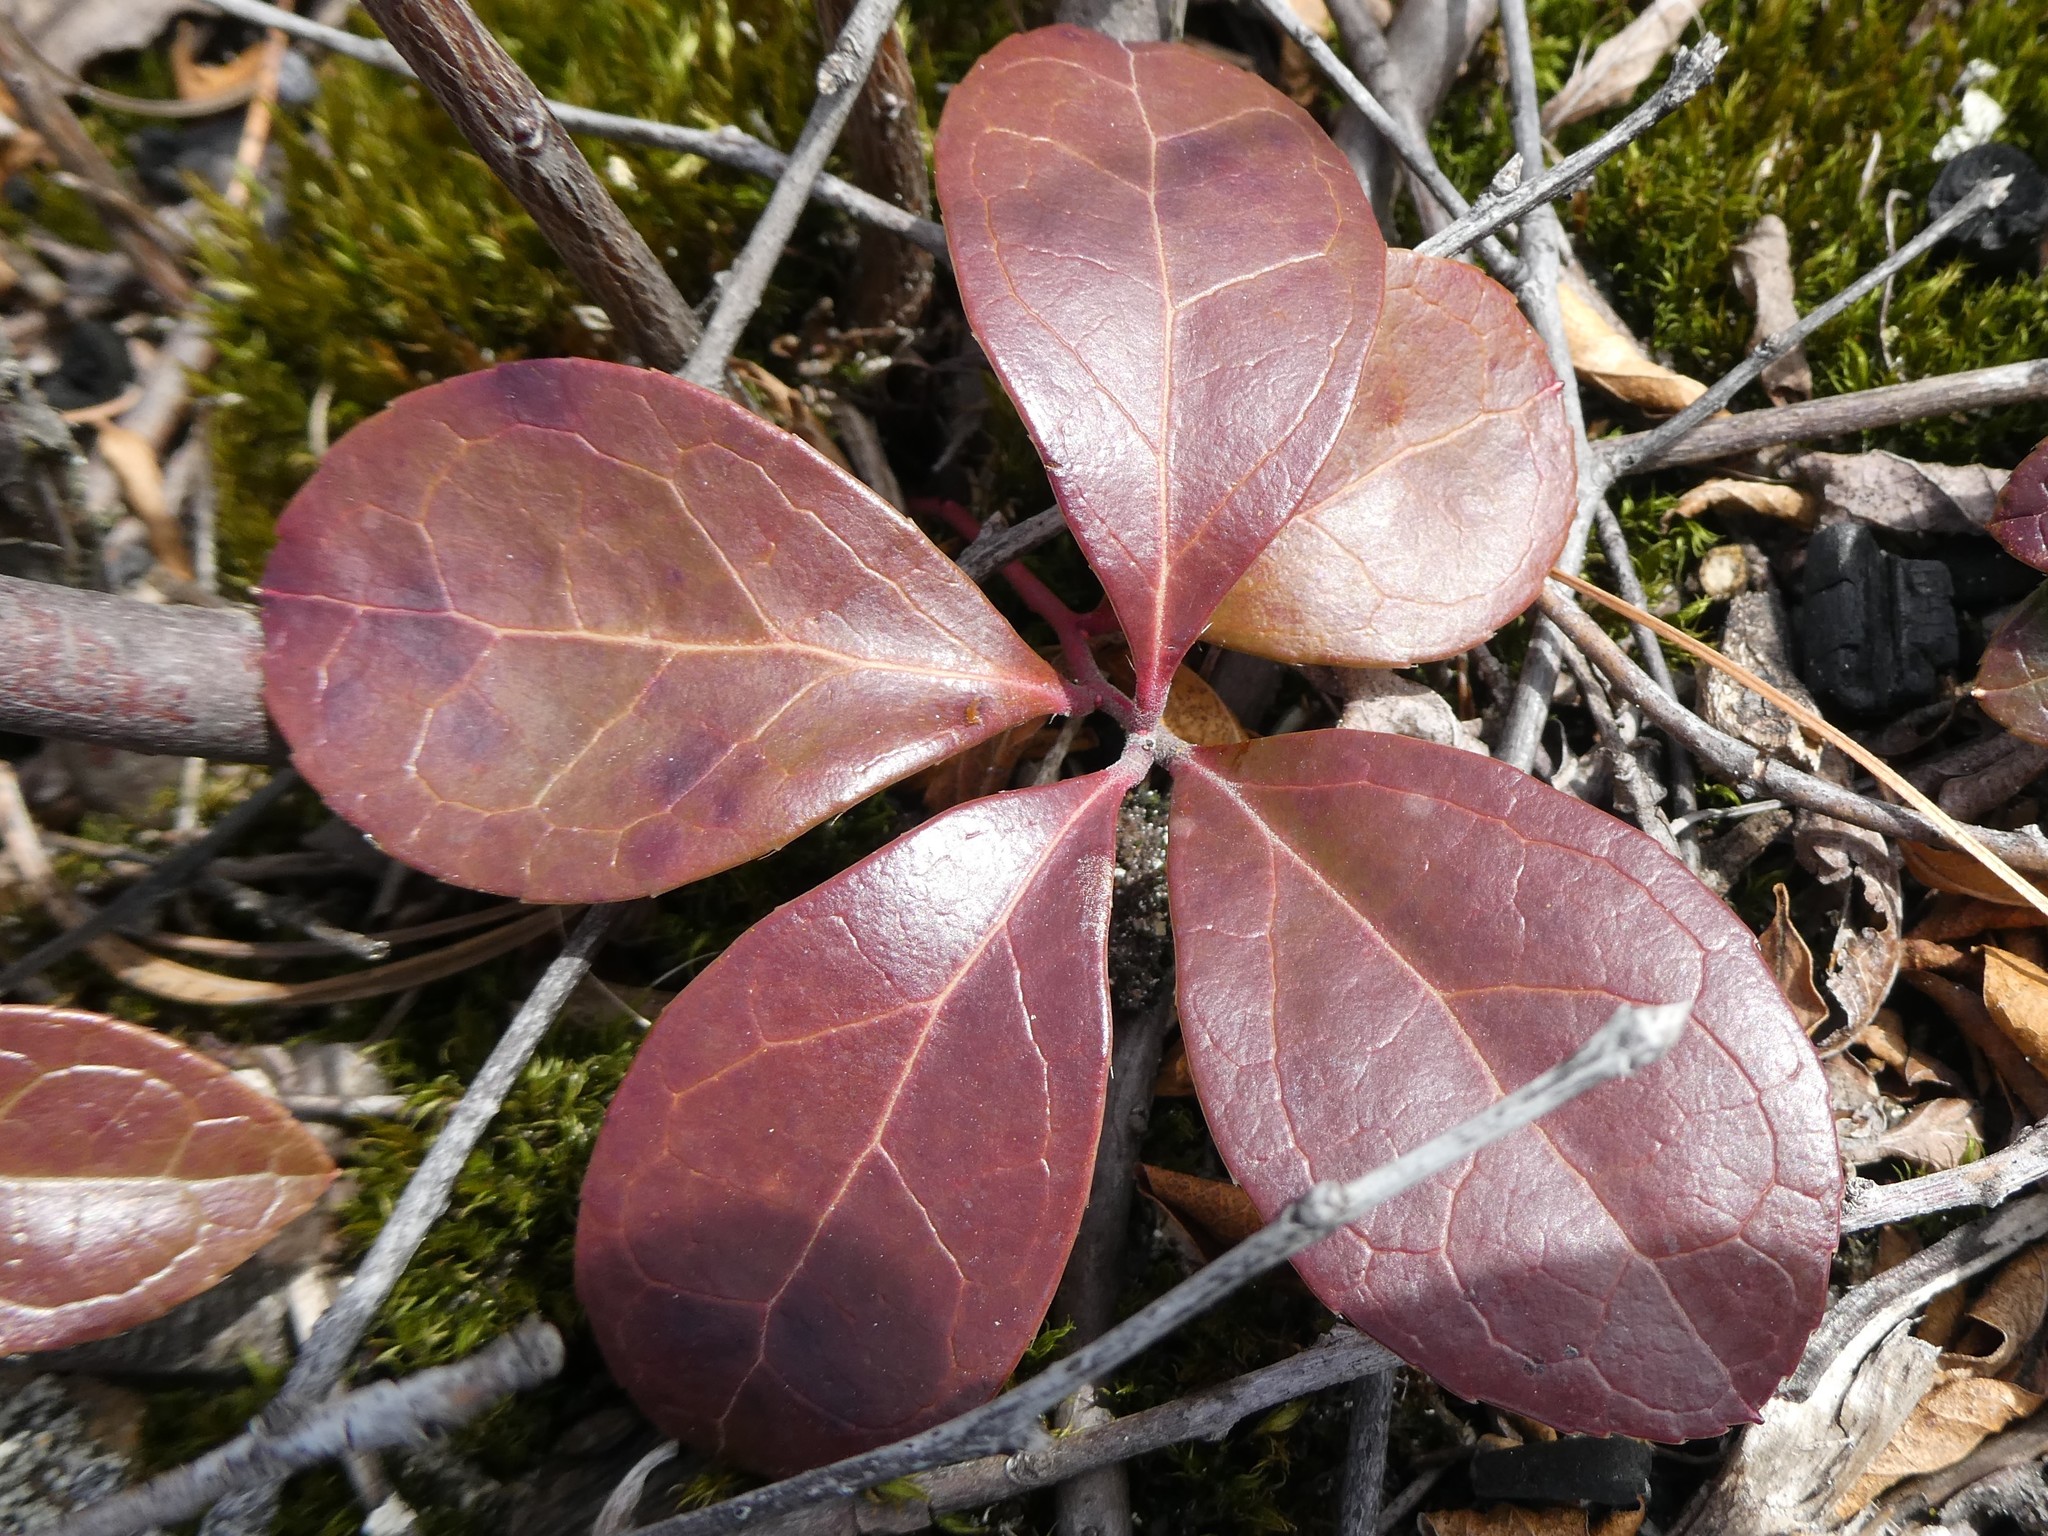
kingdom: Plantae
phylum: Tracheophyta
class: Magnoliopsida
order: Ericales
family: Ericaceae
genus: Gaultheria
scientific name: Gaultheria procumbens
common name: Checkerberry
